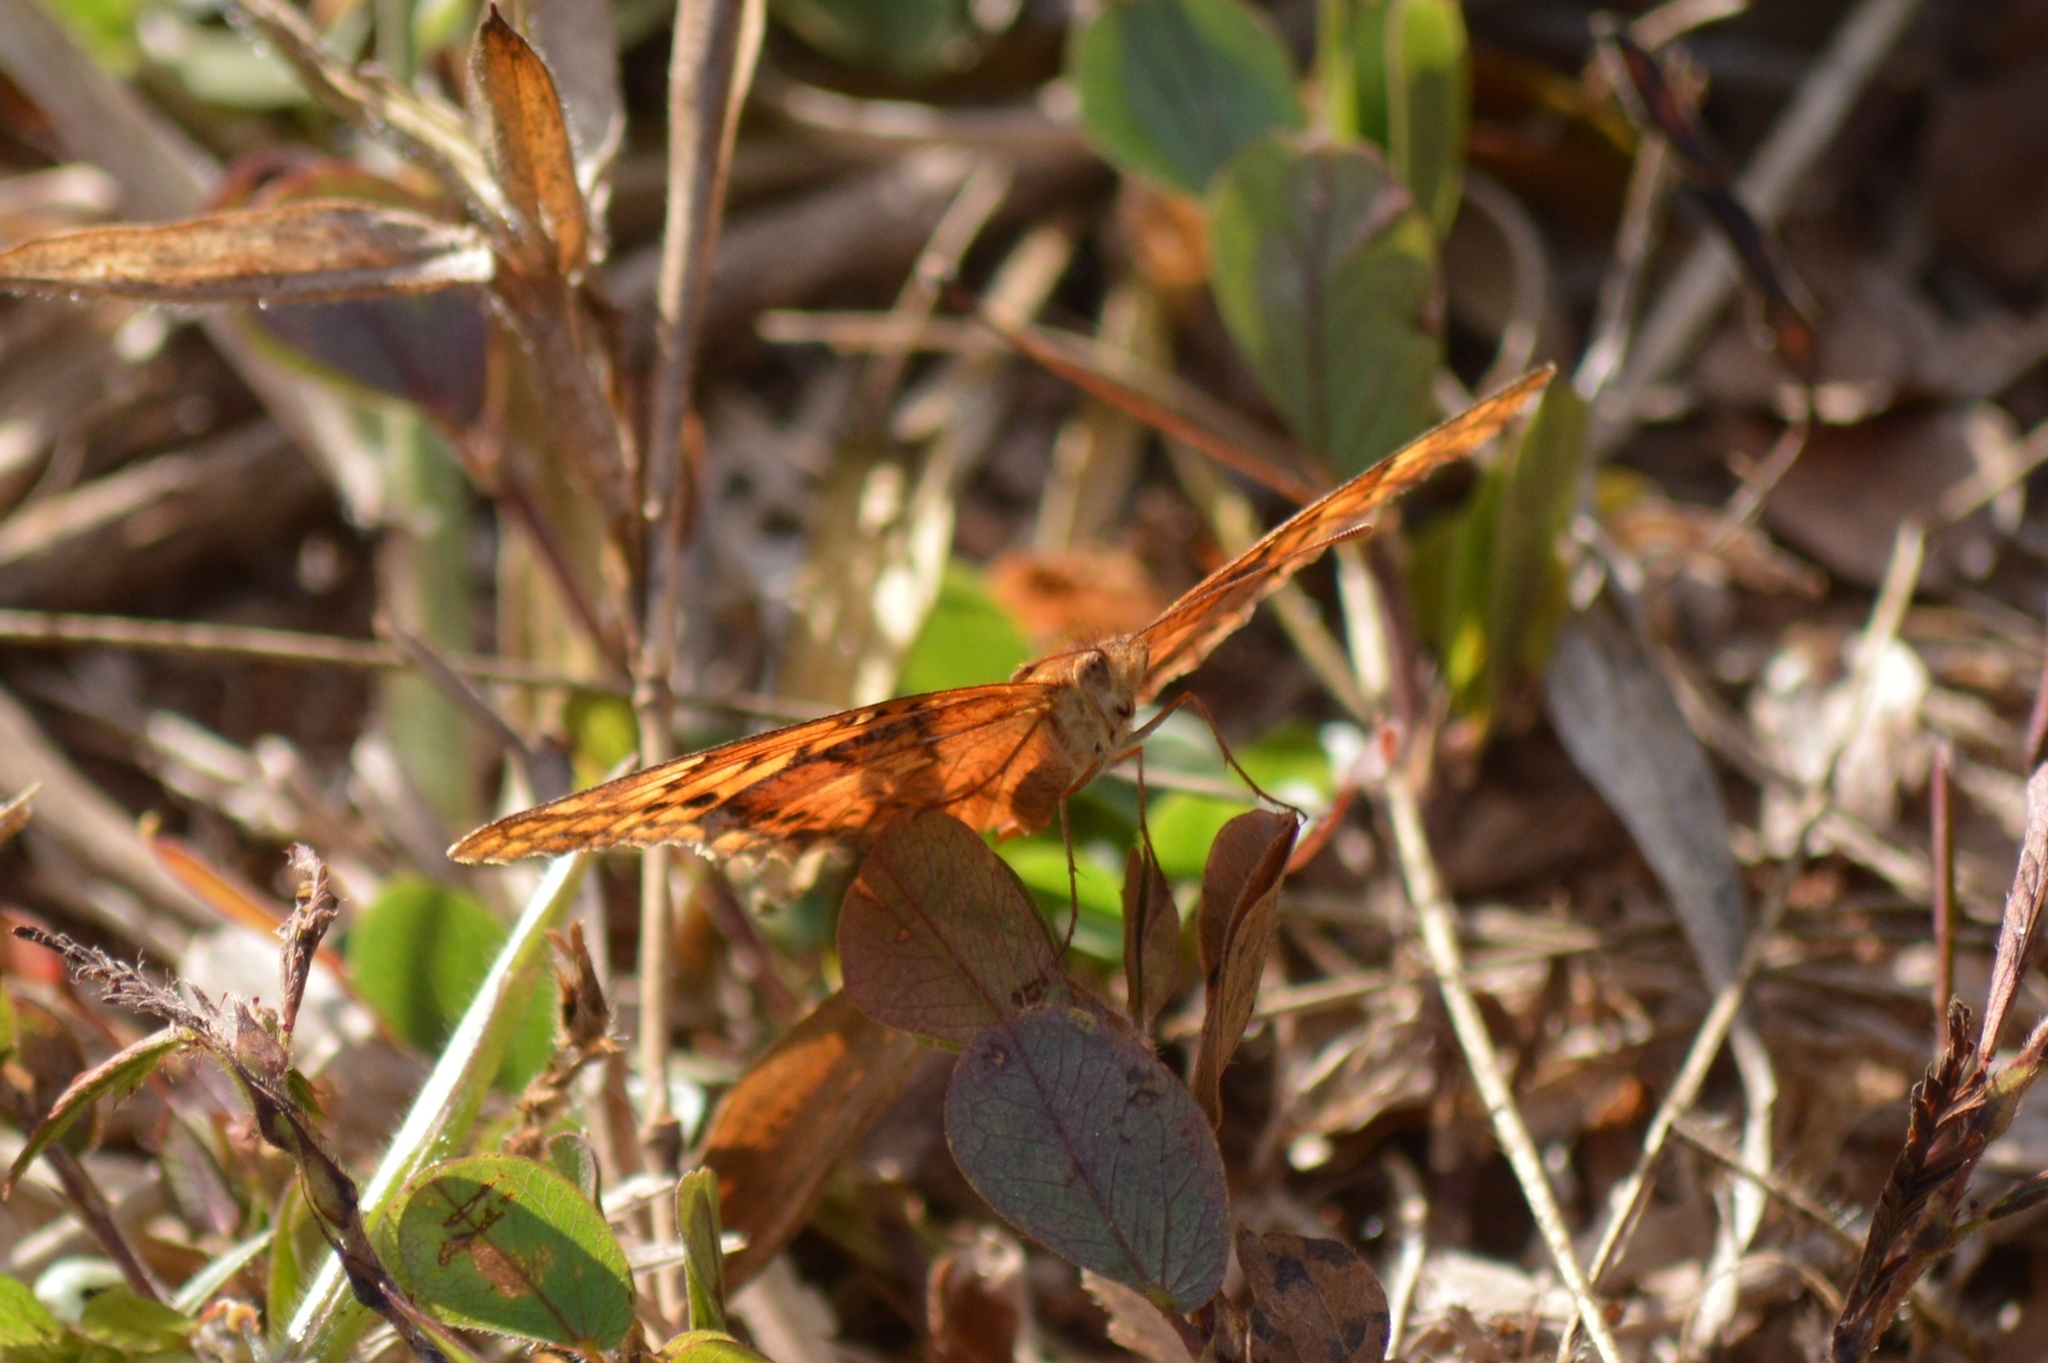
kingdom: Animalia
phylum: Arthropoda
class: Insecta
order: Lepidoptera
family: Nymphalidae
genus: Euptoieta
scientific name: Euptoieta hegesia
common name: Mexican fritillary
